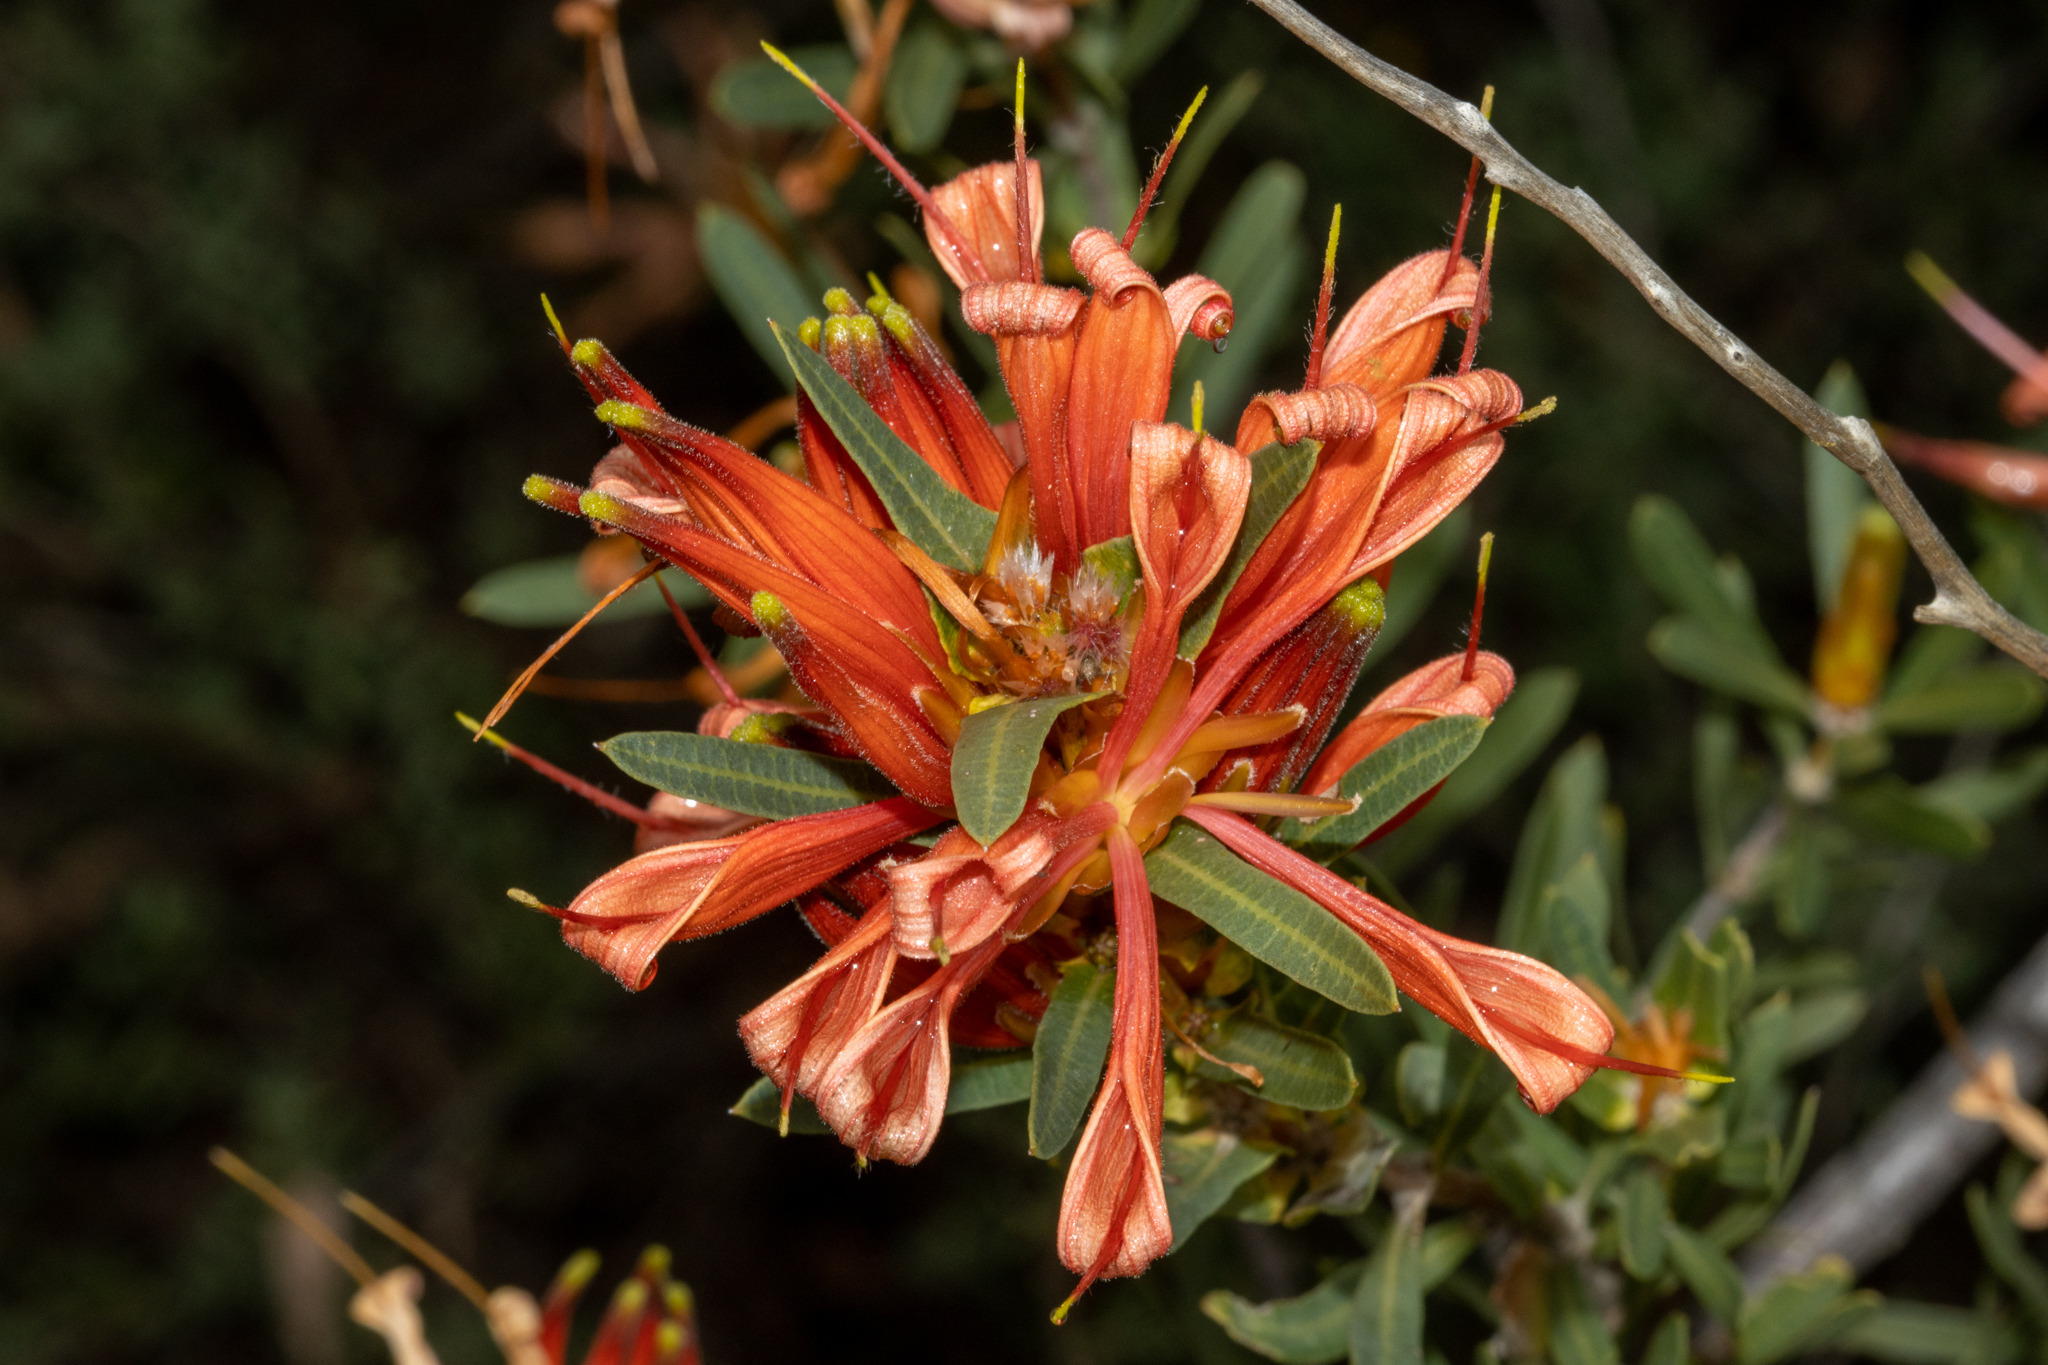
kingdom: Plantae
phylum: Tracheophyta
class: Magnoliopsida
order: Proteales
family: Proteaceae
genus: Lambertia
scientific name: Lambertia multiflora
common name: Many-flowered honeysuckle
